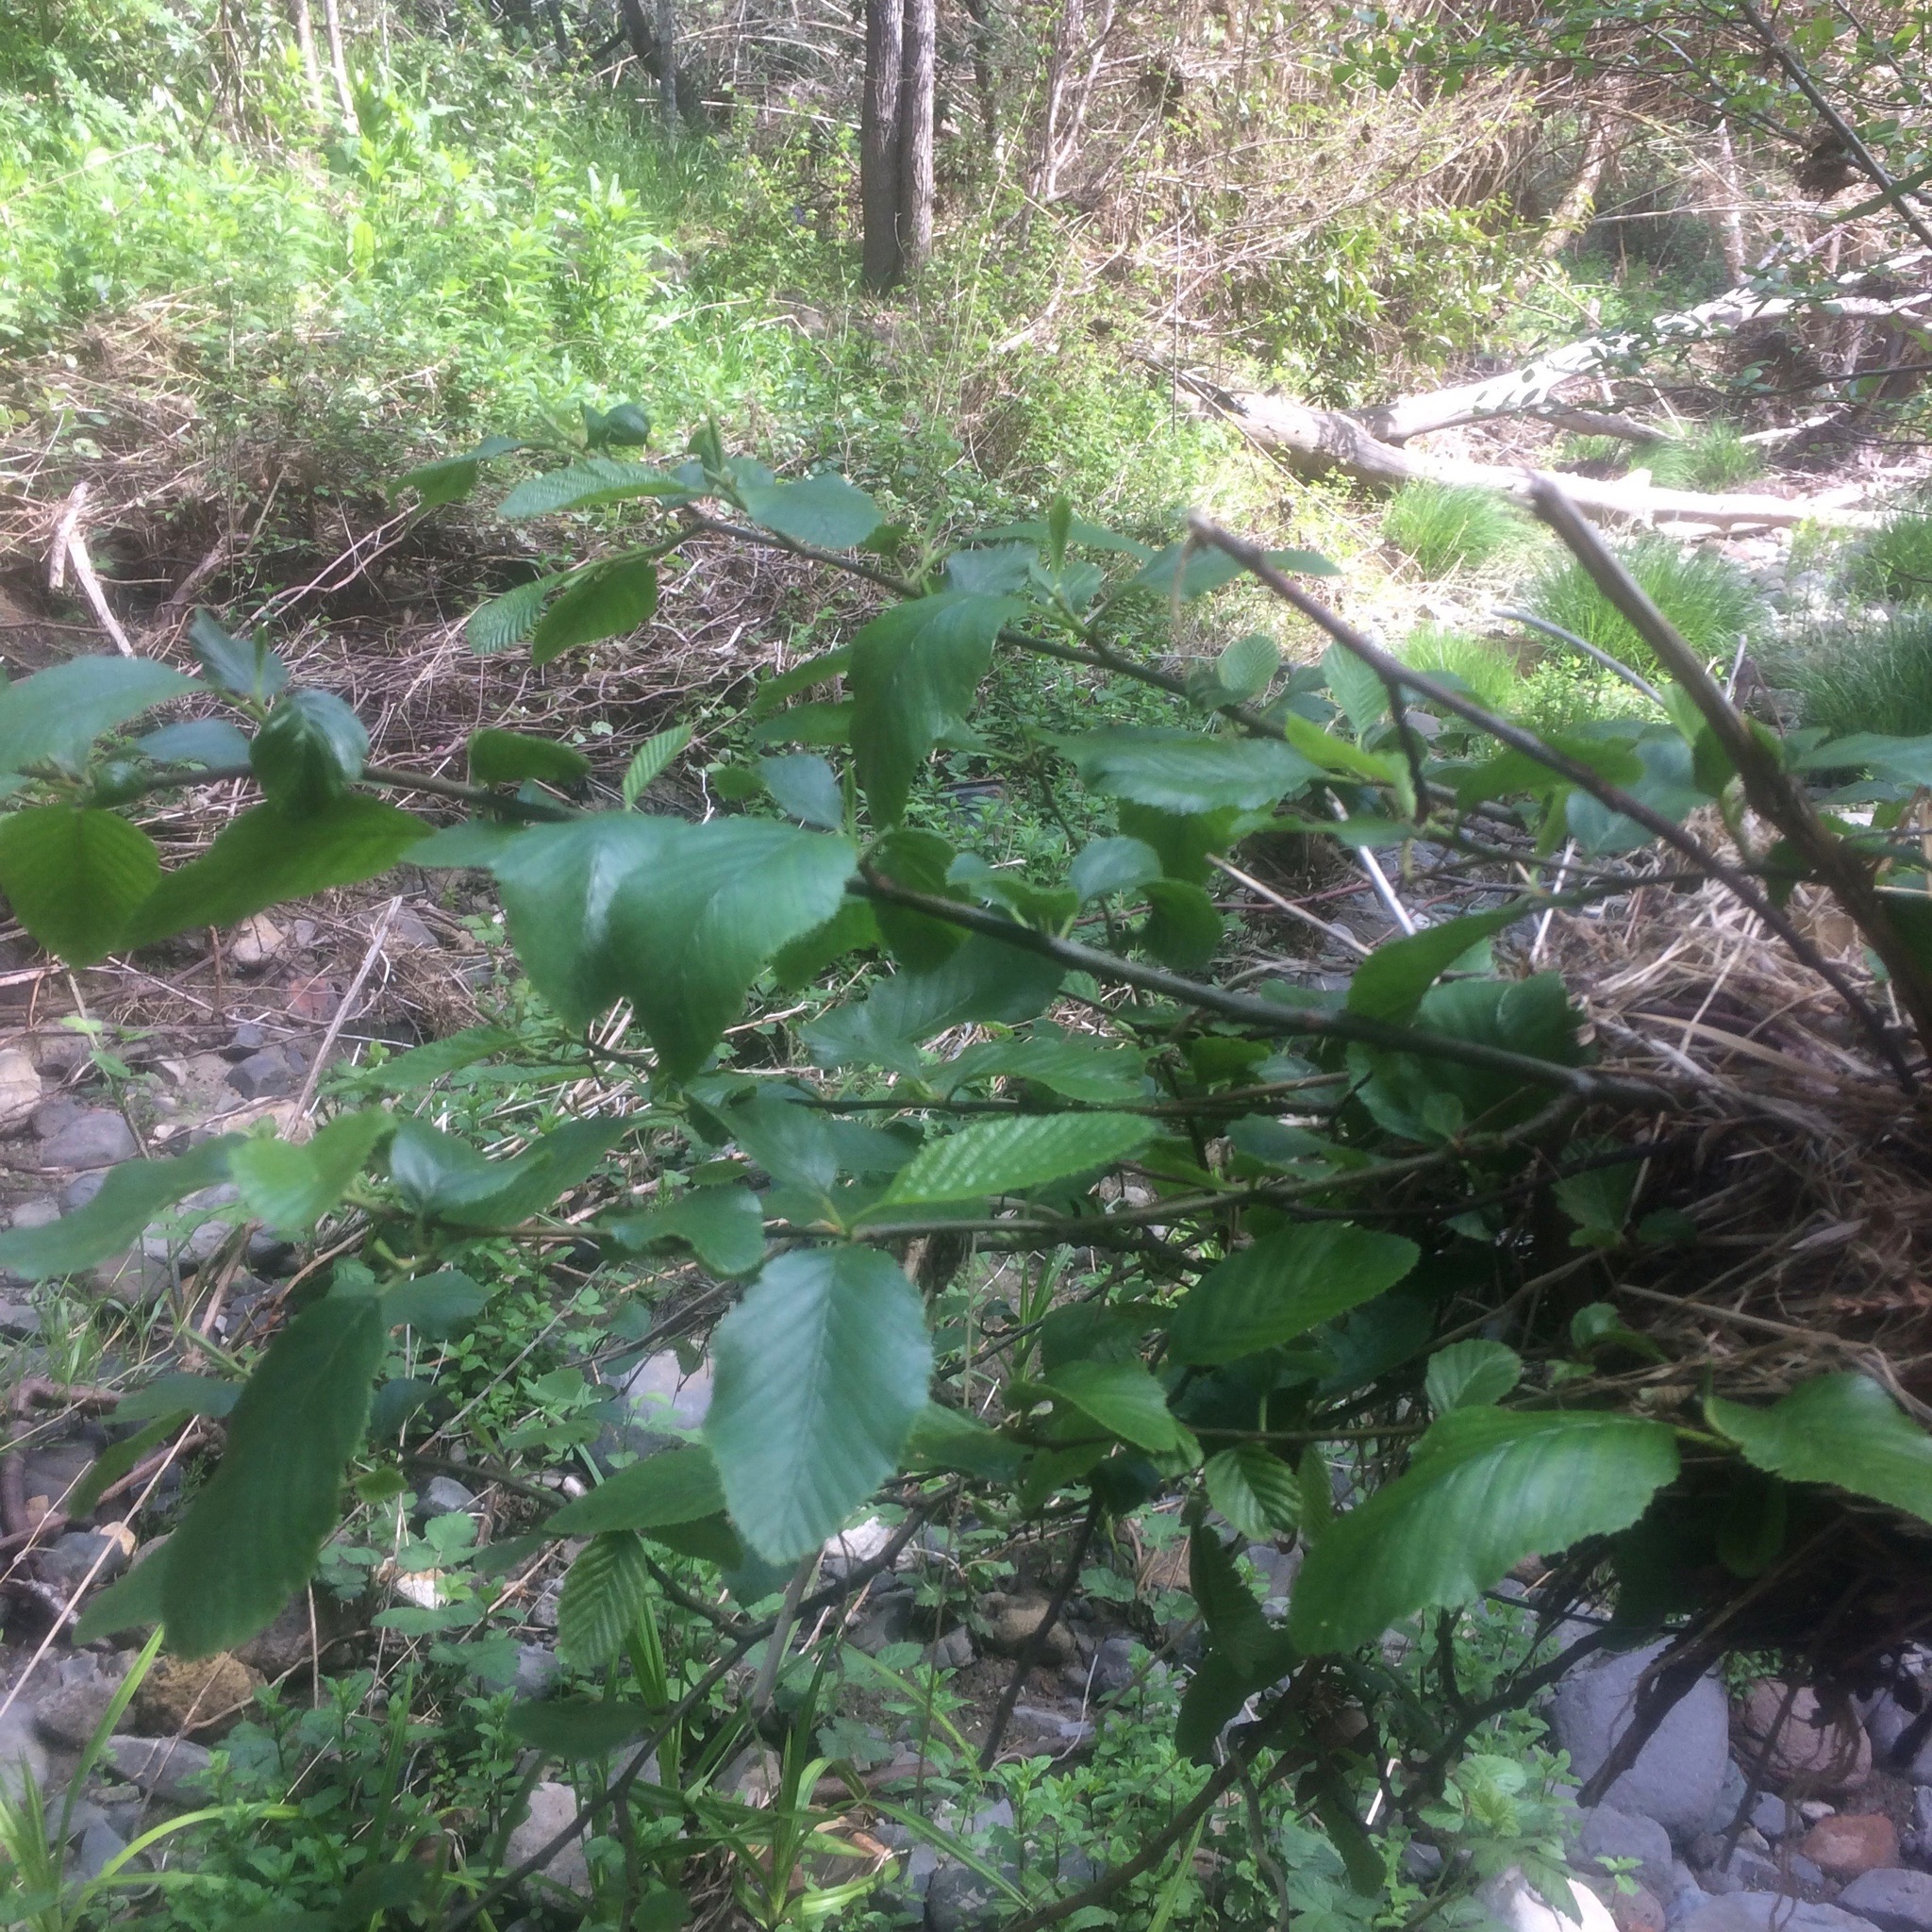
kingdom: Plantae
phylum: Tracheophyta
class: Magnoliopsida
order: Fagales
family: Betulaceae
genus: Alnus
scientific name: Alnus rhombifolia
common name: California alder
